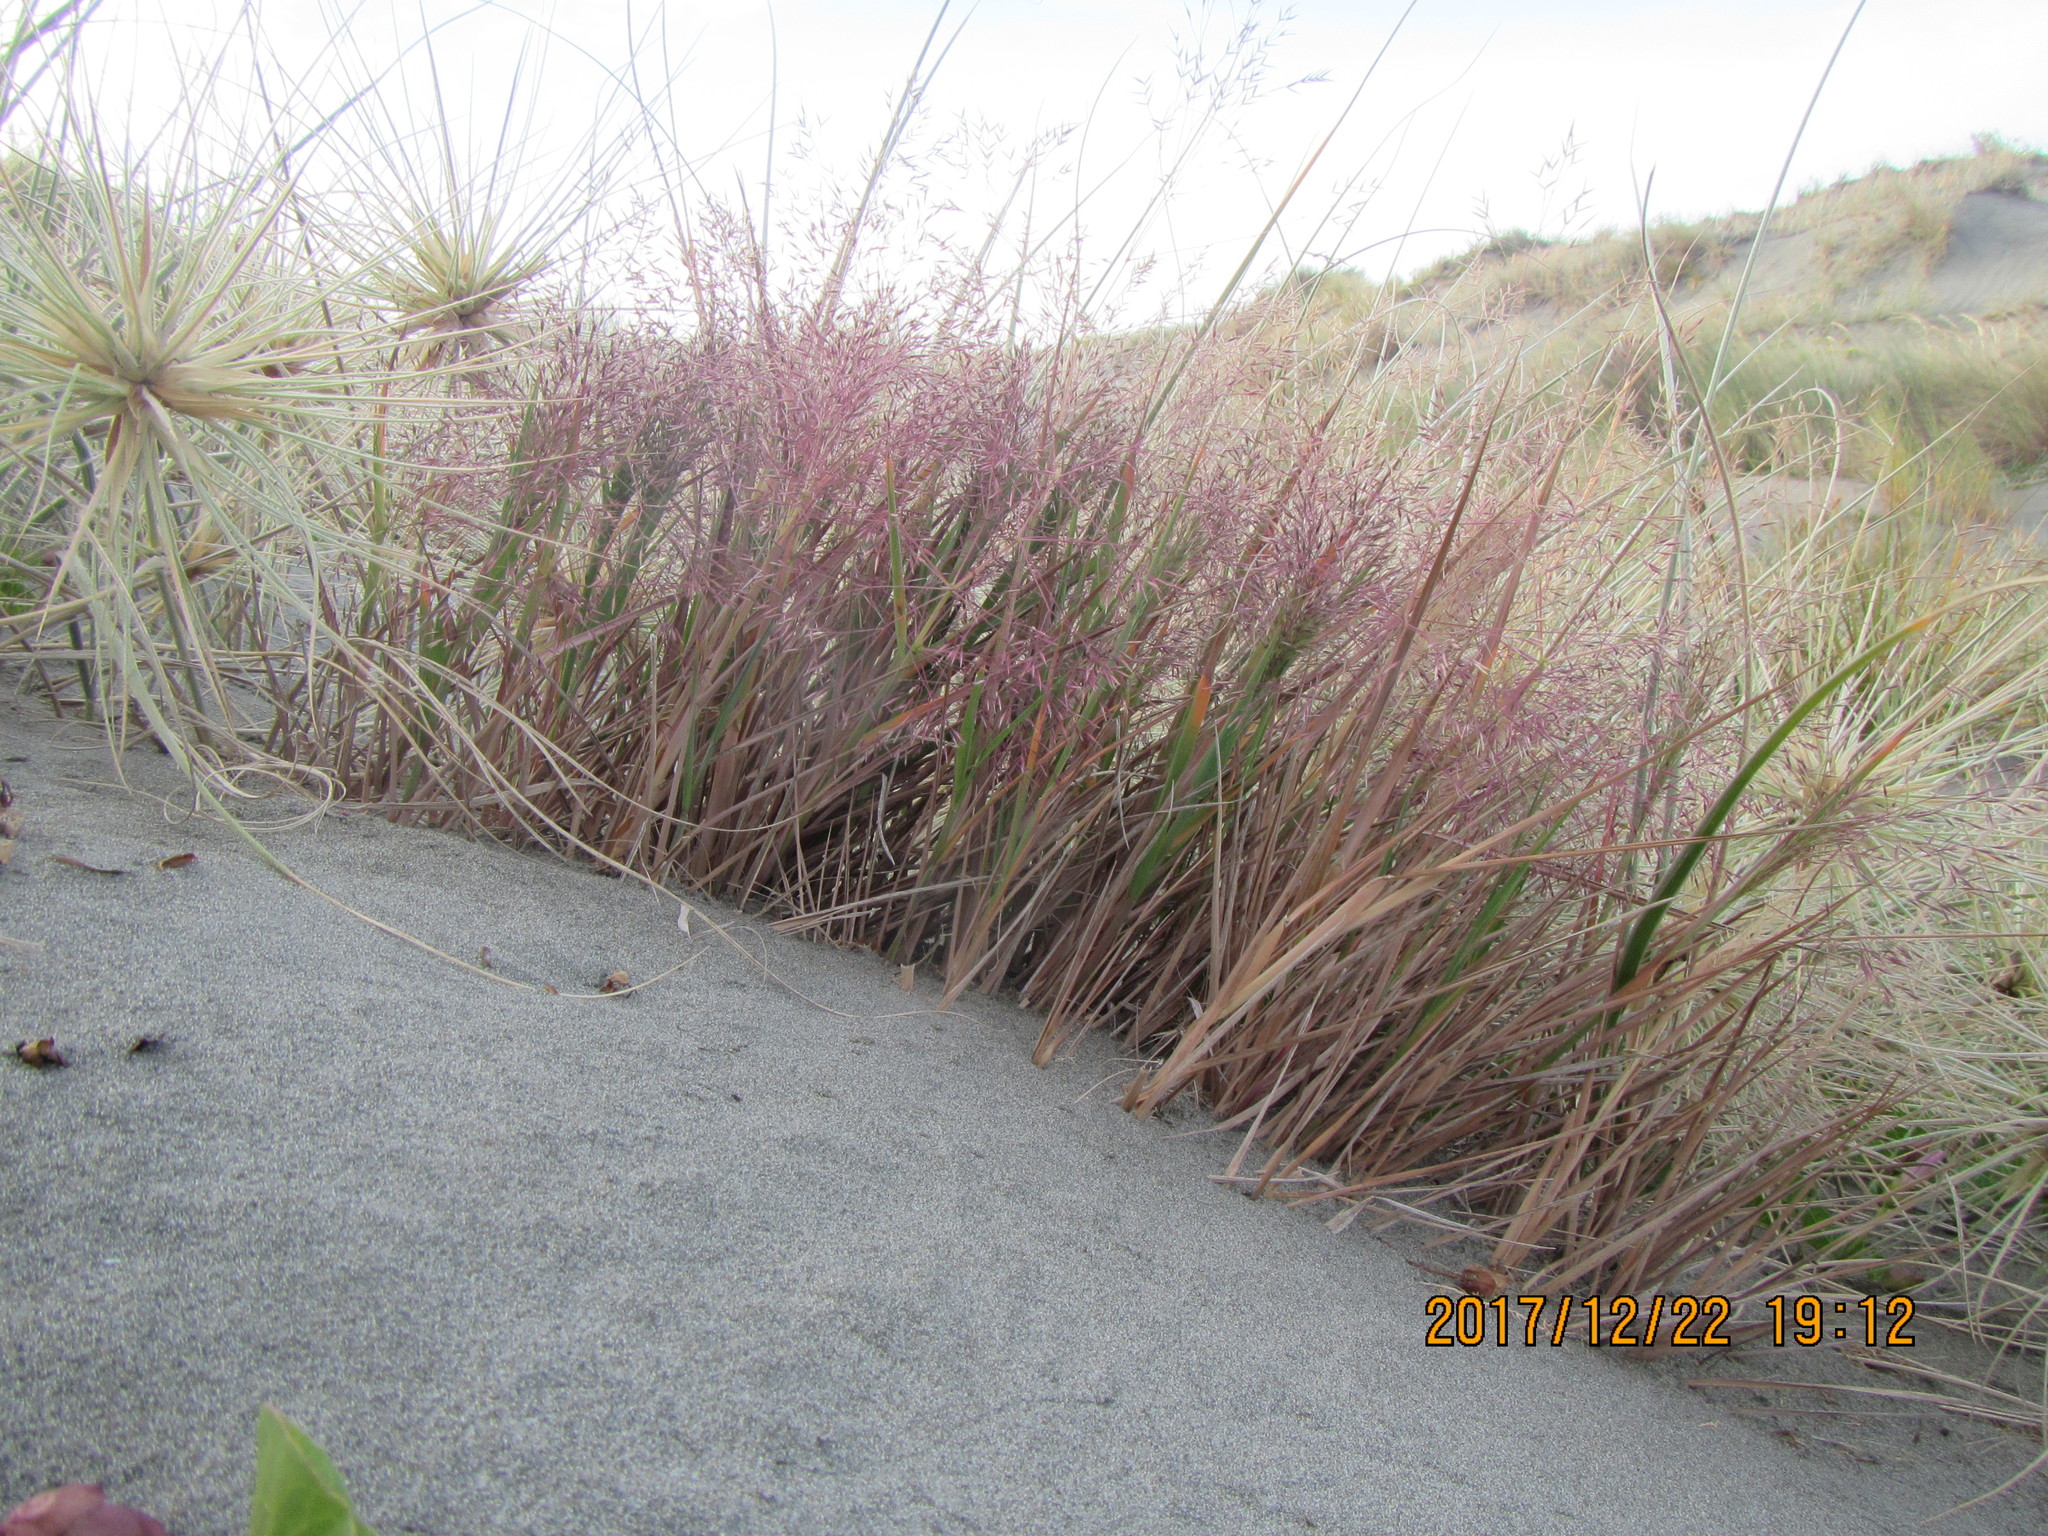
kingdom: Plantae
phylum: Tracheophyta
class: Liliopsida
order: Poales
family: Poaceae
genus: Lachnagrostis
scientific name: Lachnagrostis billardierei
